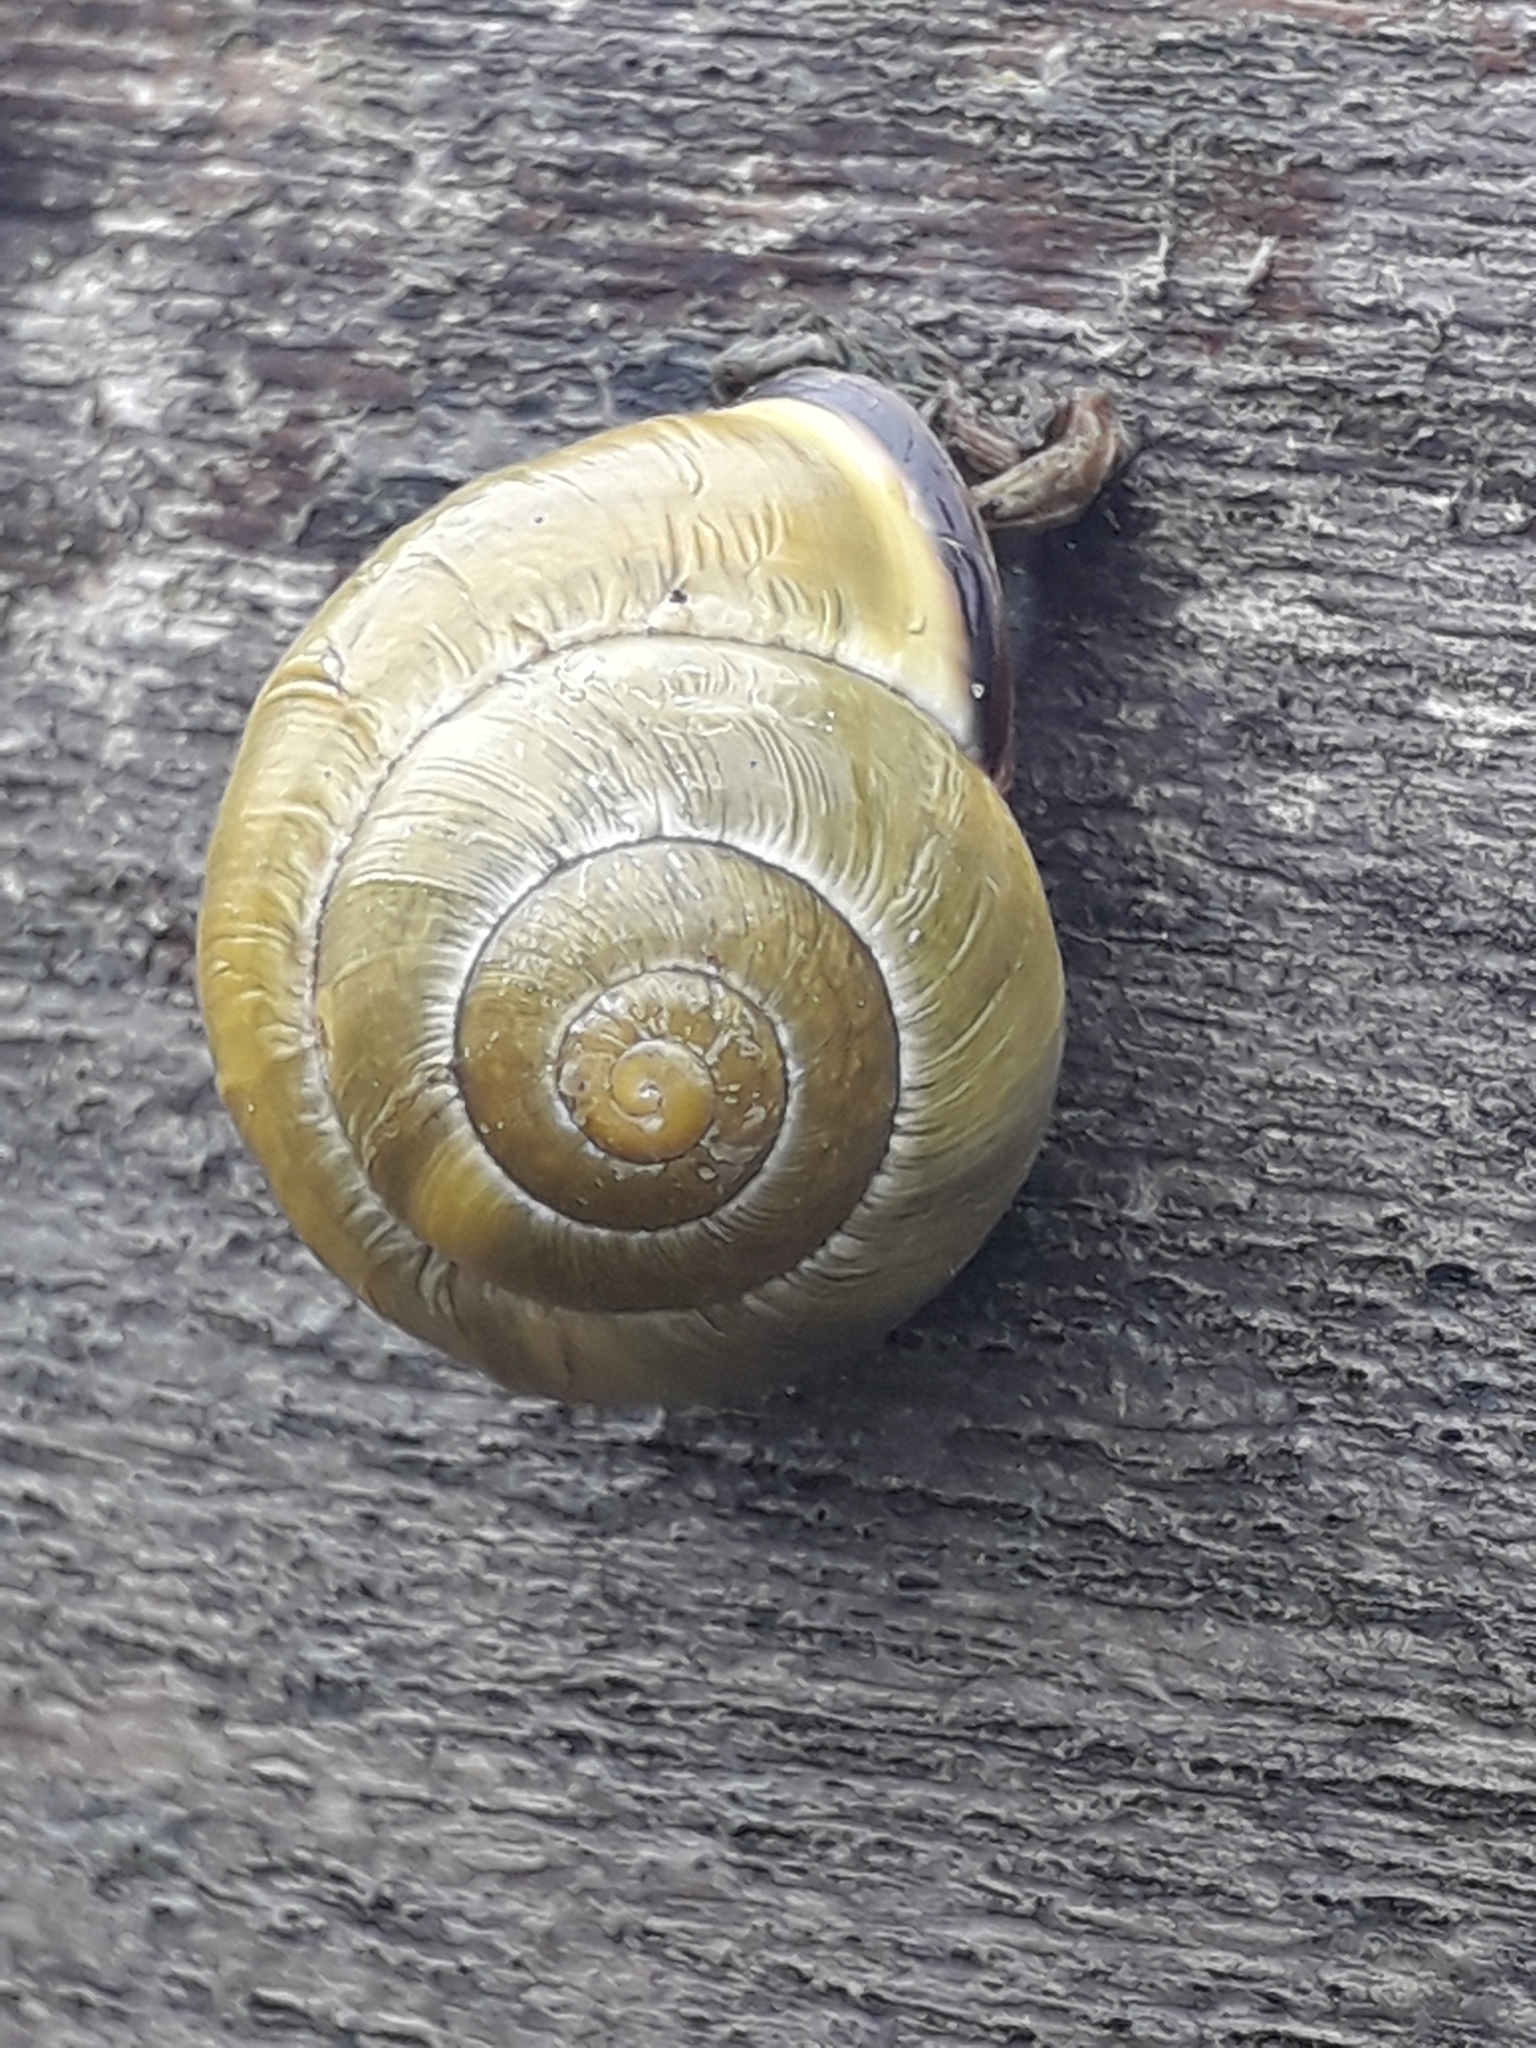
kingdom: Animalia
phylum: Mollusca
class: Gastropoda
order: Stylommatophora
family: Helicidae
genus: Cepaea
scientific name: Cepaea nemoralis
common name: Grovesnail
